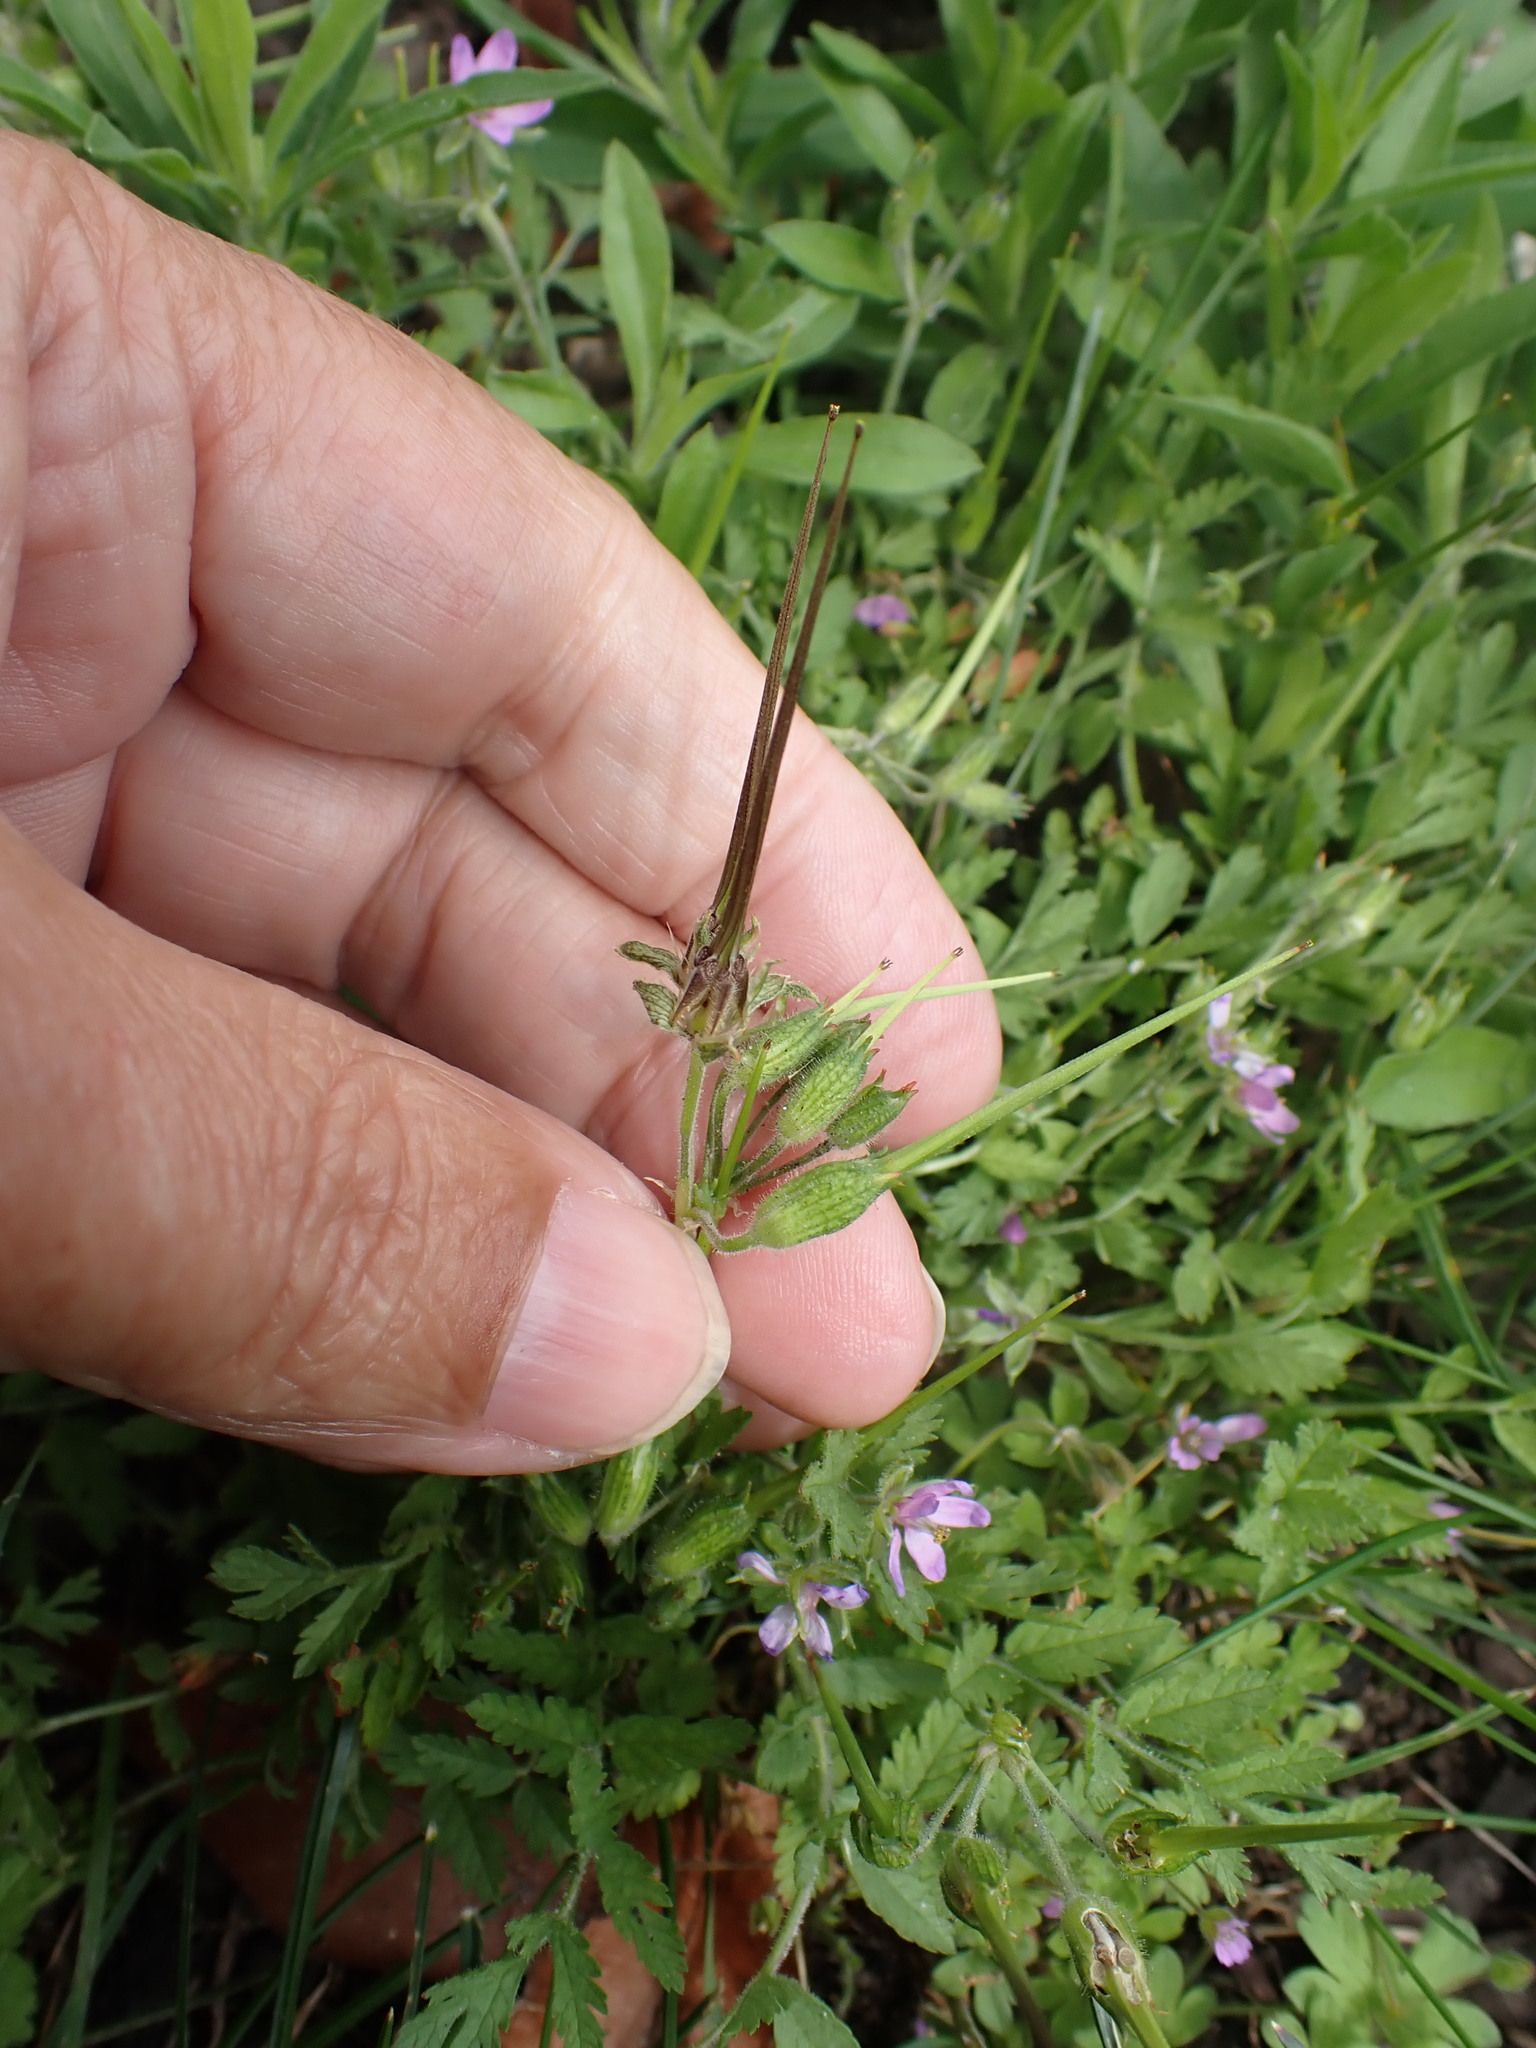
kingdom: Plantae
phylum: Tracheophyta
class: Magnoliopsida
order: Geraniales
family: Geraniaceae
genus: Erodium
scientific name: Erodium moschatum
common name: Musk stork's-bill
